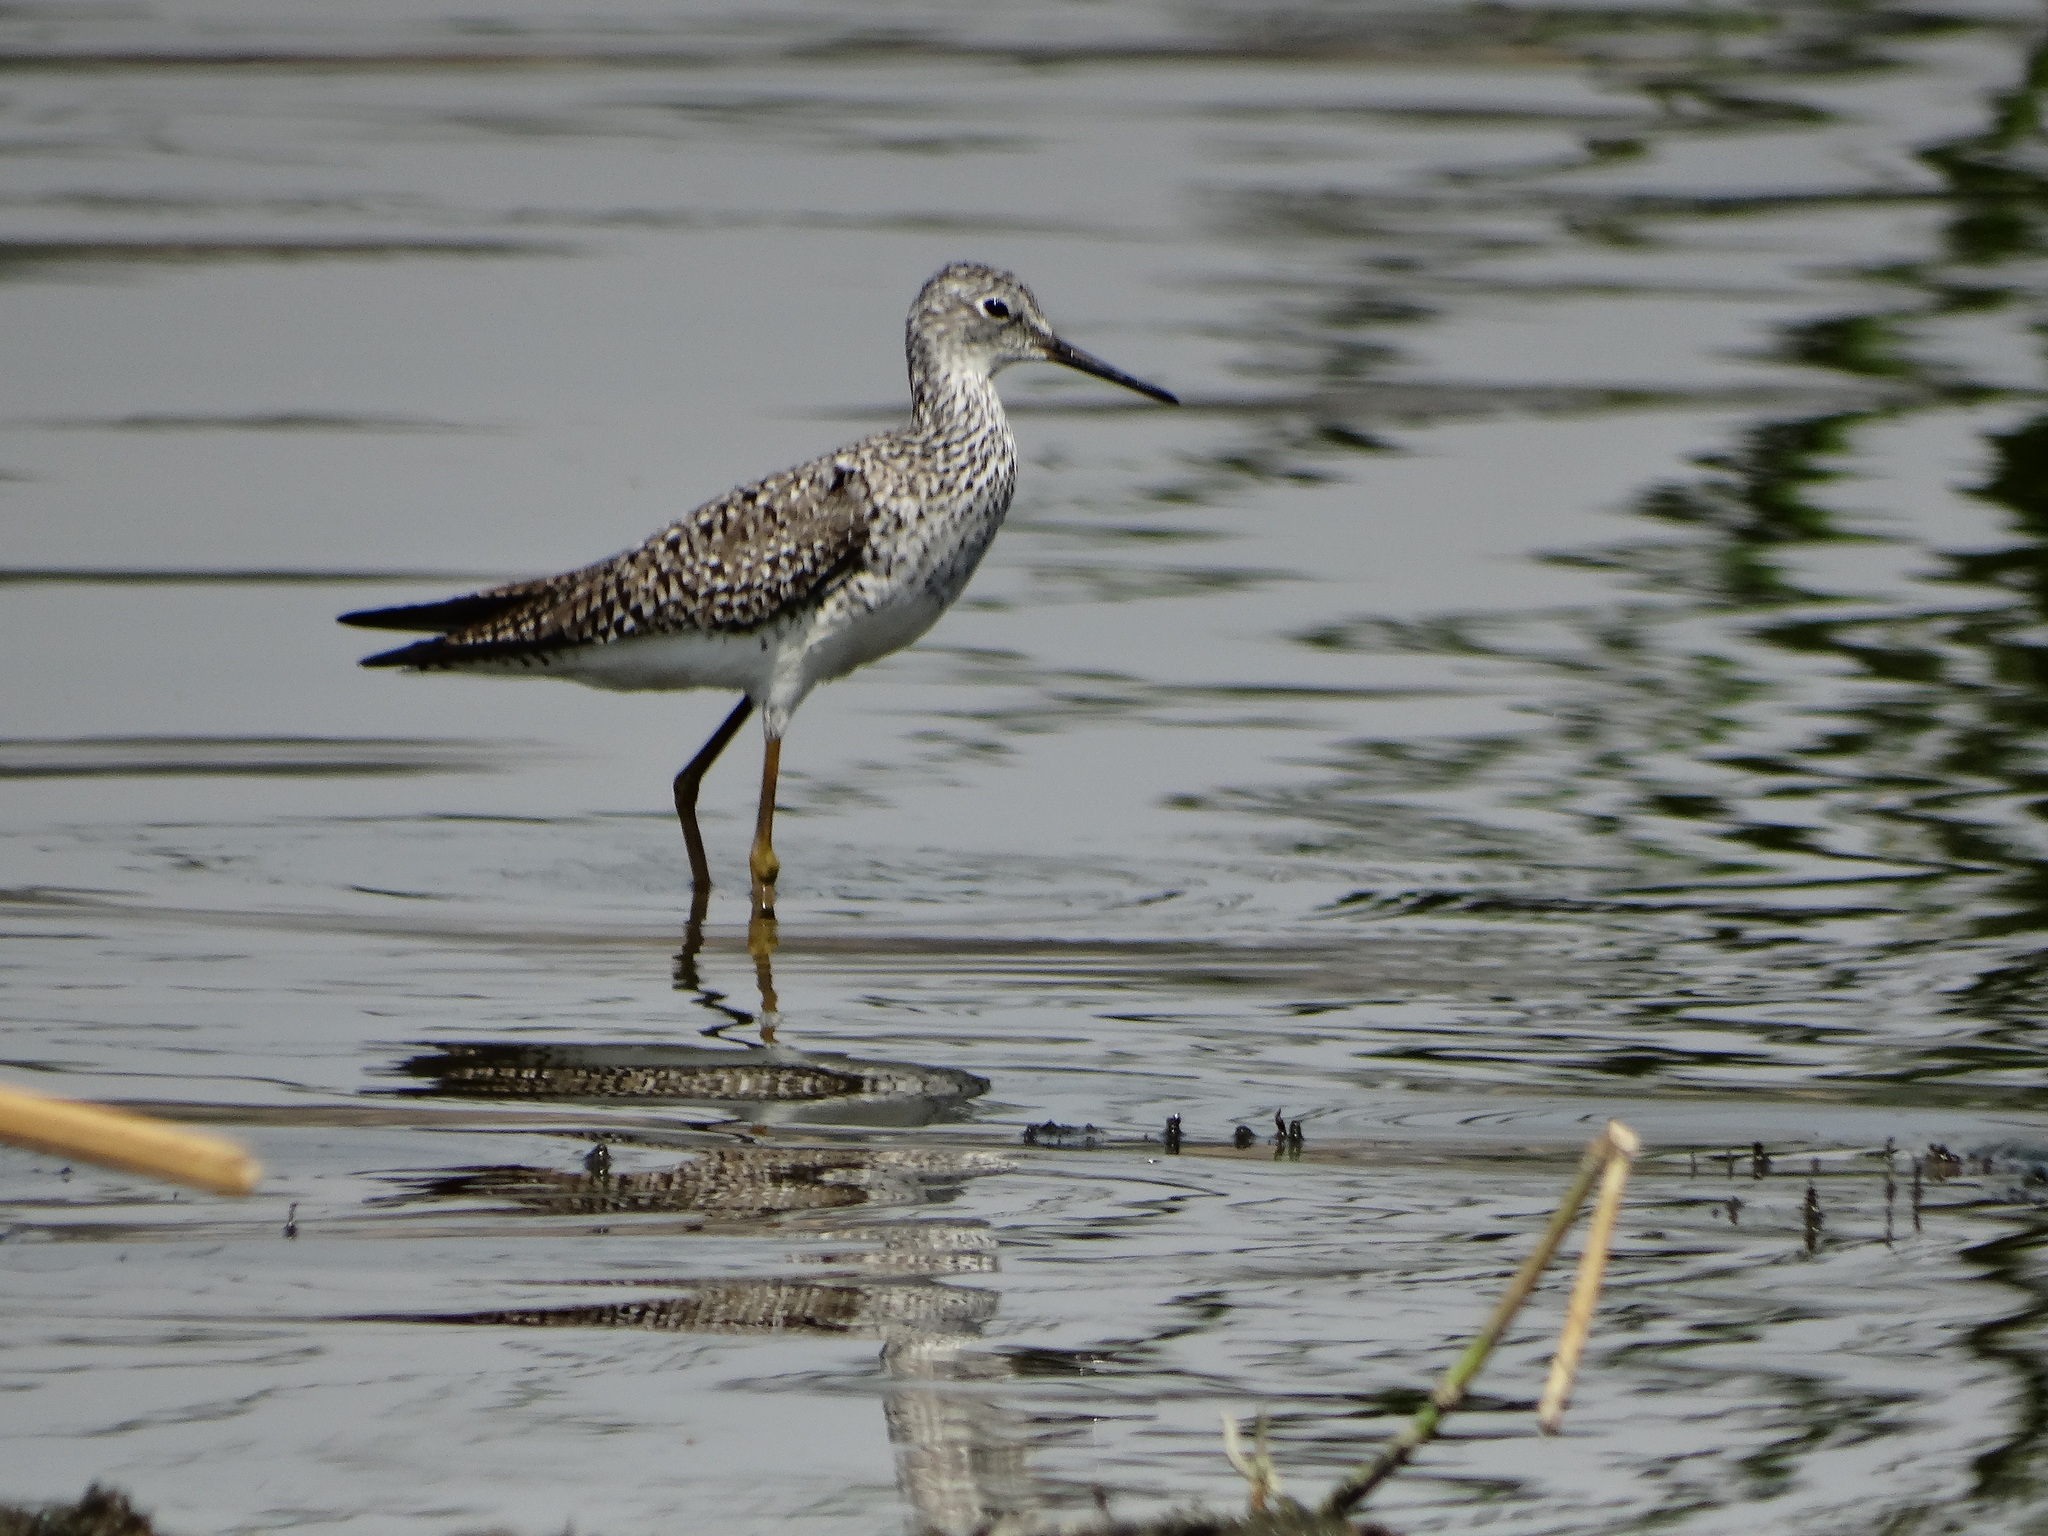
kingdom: Animalia
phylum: Chordata
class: Aves
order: Charadriiformes
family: Scolopacidae
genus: Tringa
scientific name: Tringa flavipes
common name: Lesser yellowlegs
